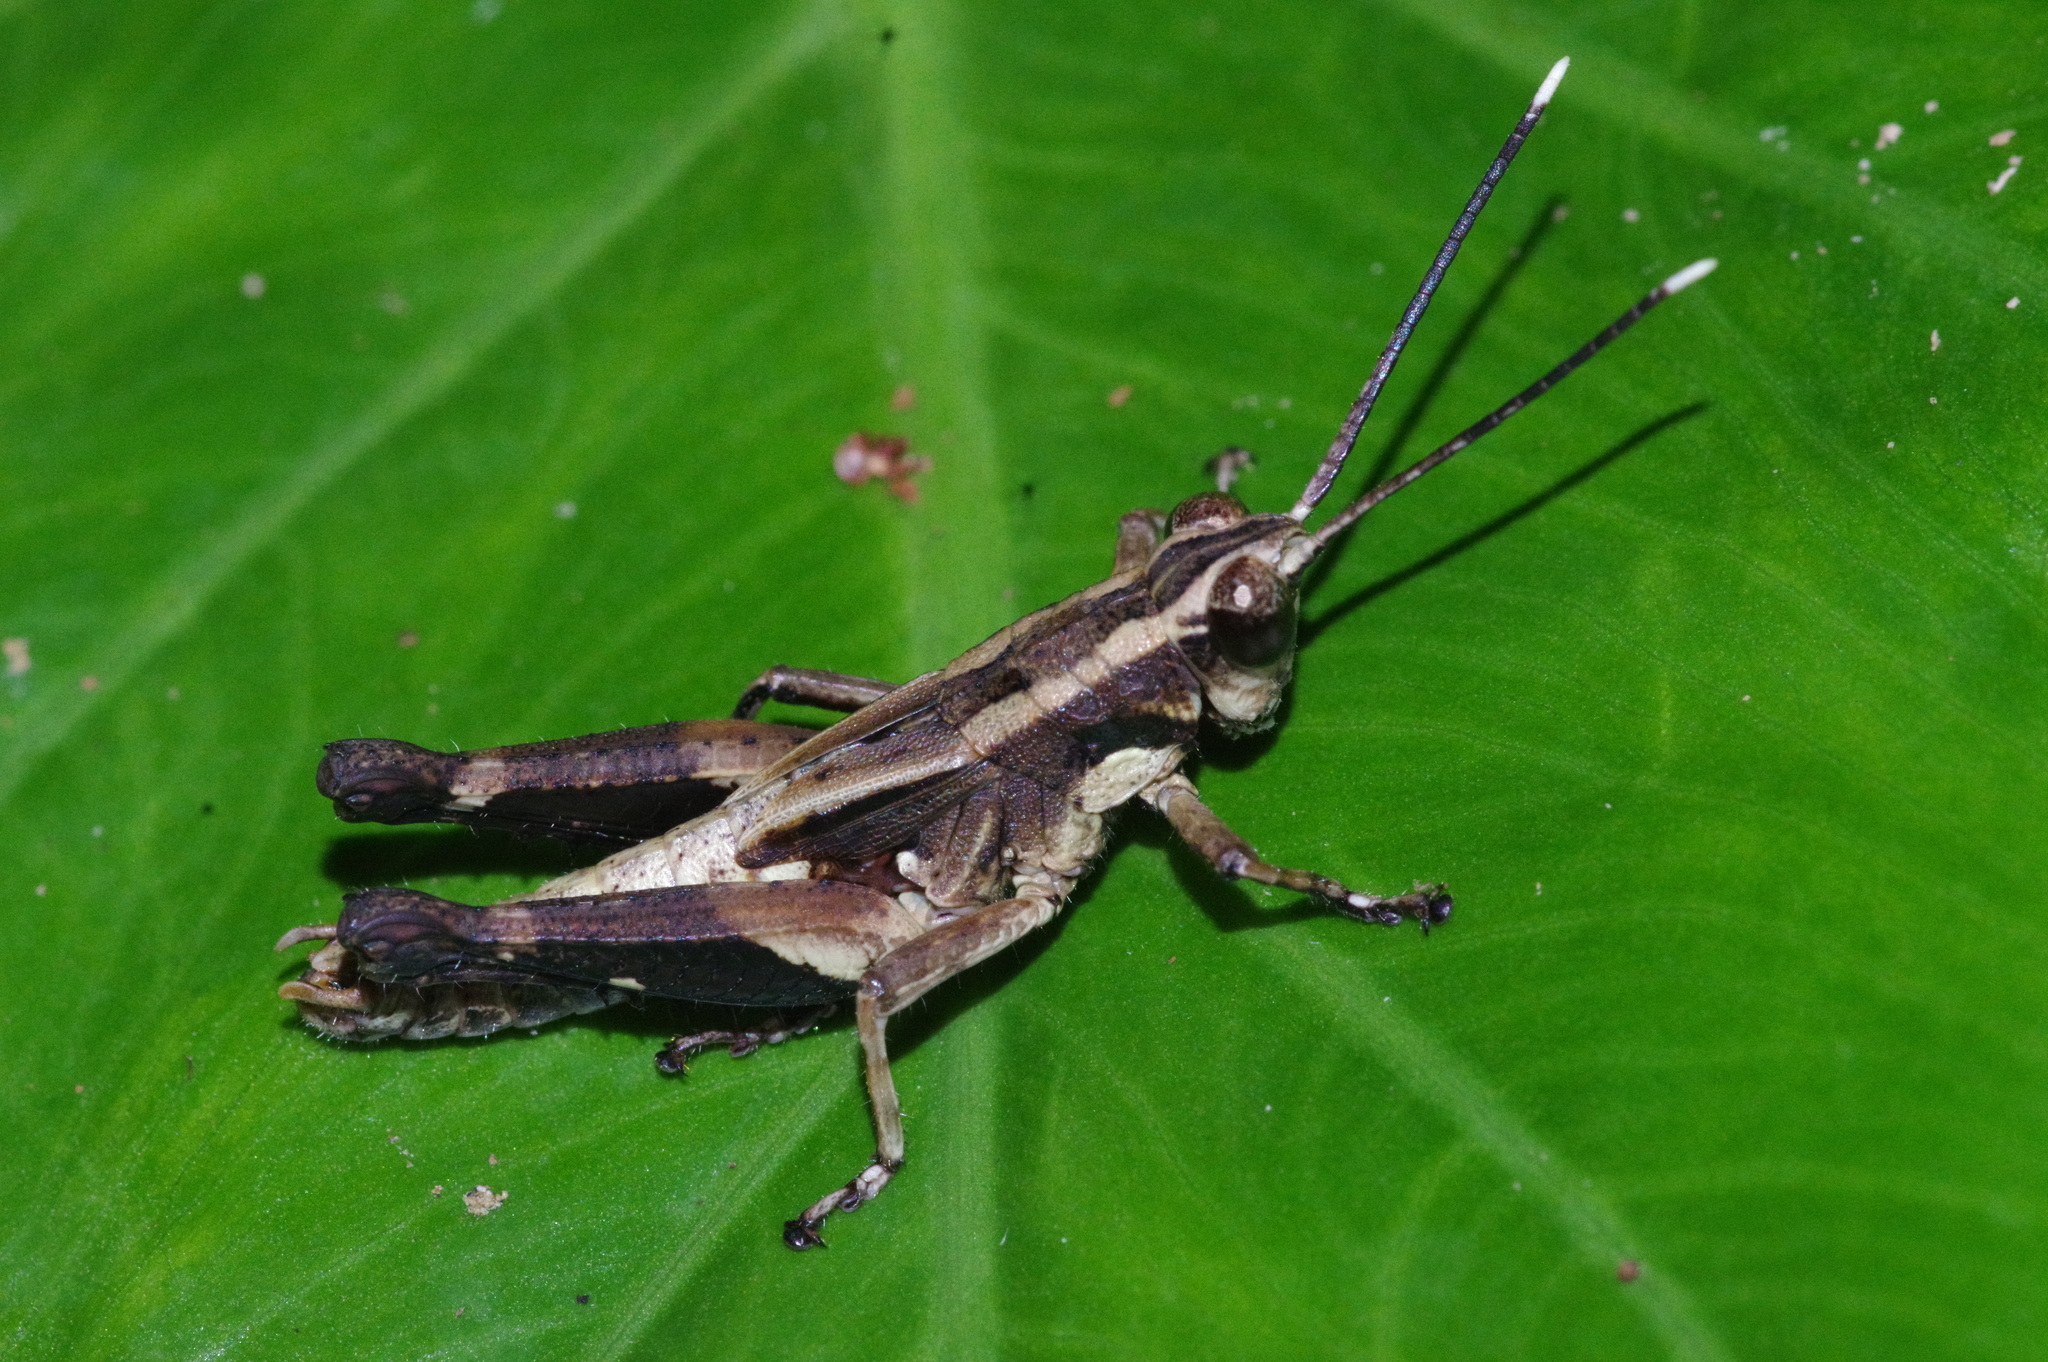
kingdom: Animalia
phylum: Arthropoda
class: Insecta
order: Orthoptera
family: Acrididae
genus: Traulia
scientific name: Traulia ornata
